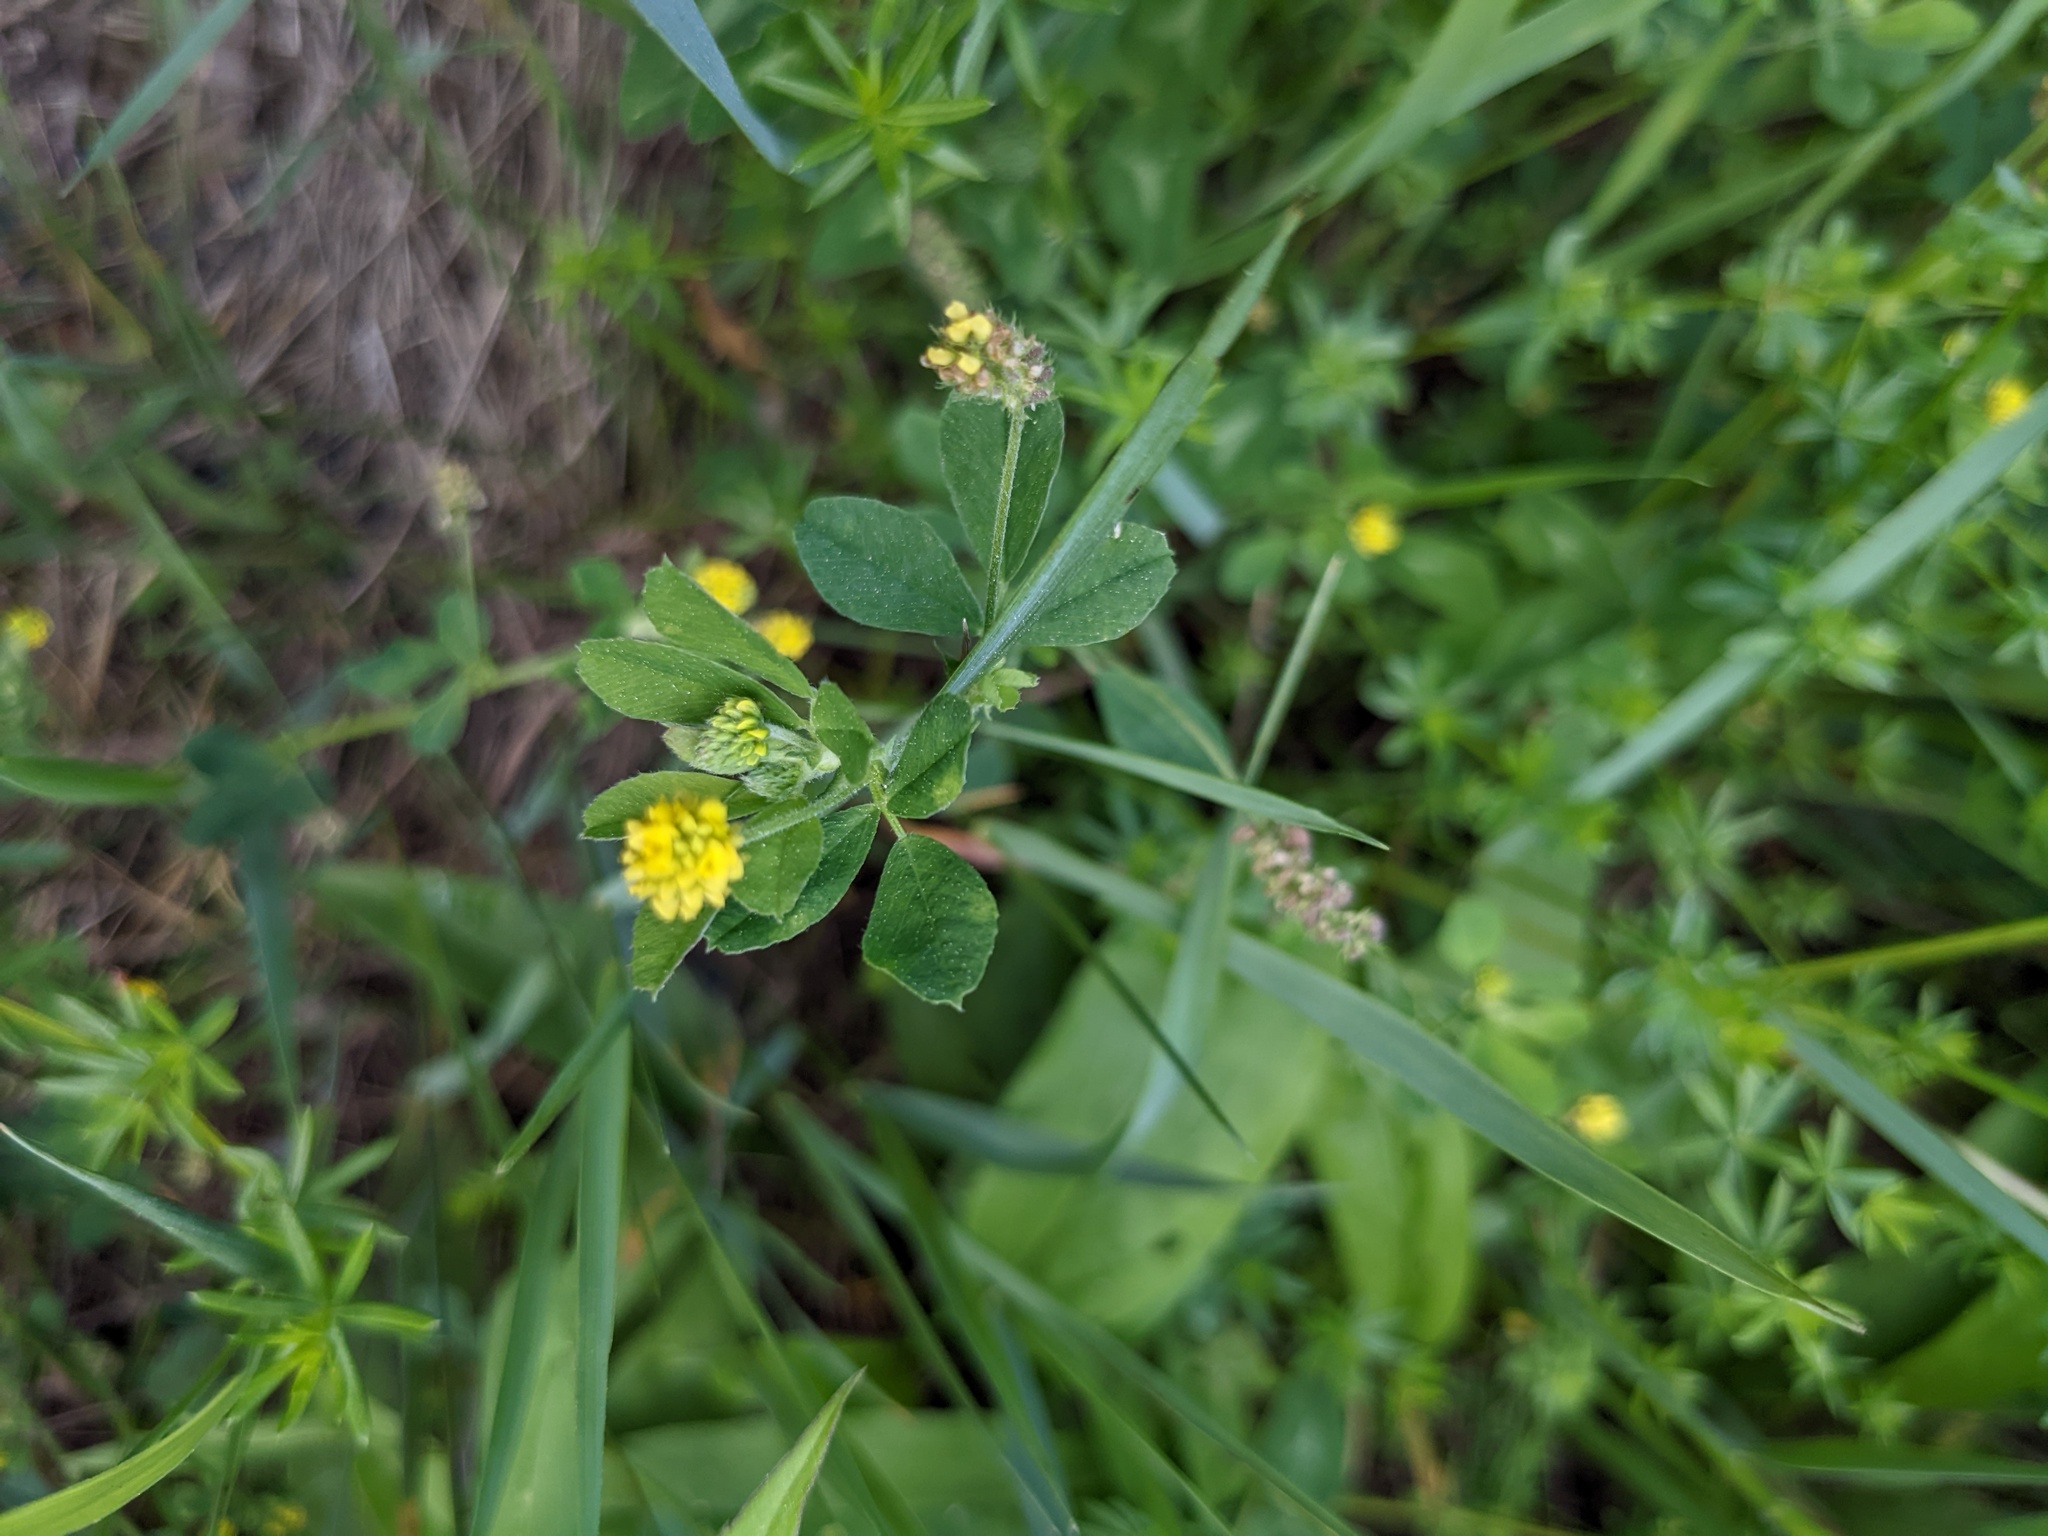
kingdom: Plantae
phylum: Tracheophyta
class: Magnoliopsida
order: Fabales
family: Fabaceae
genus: Medicago
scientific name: Medicago lupulina
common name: Black medick
